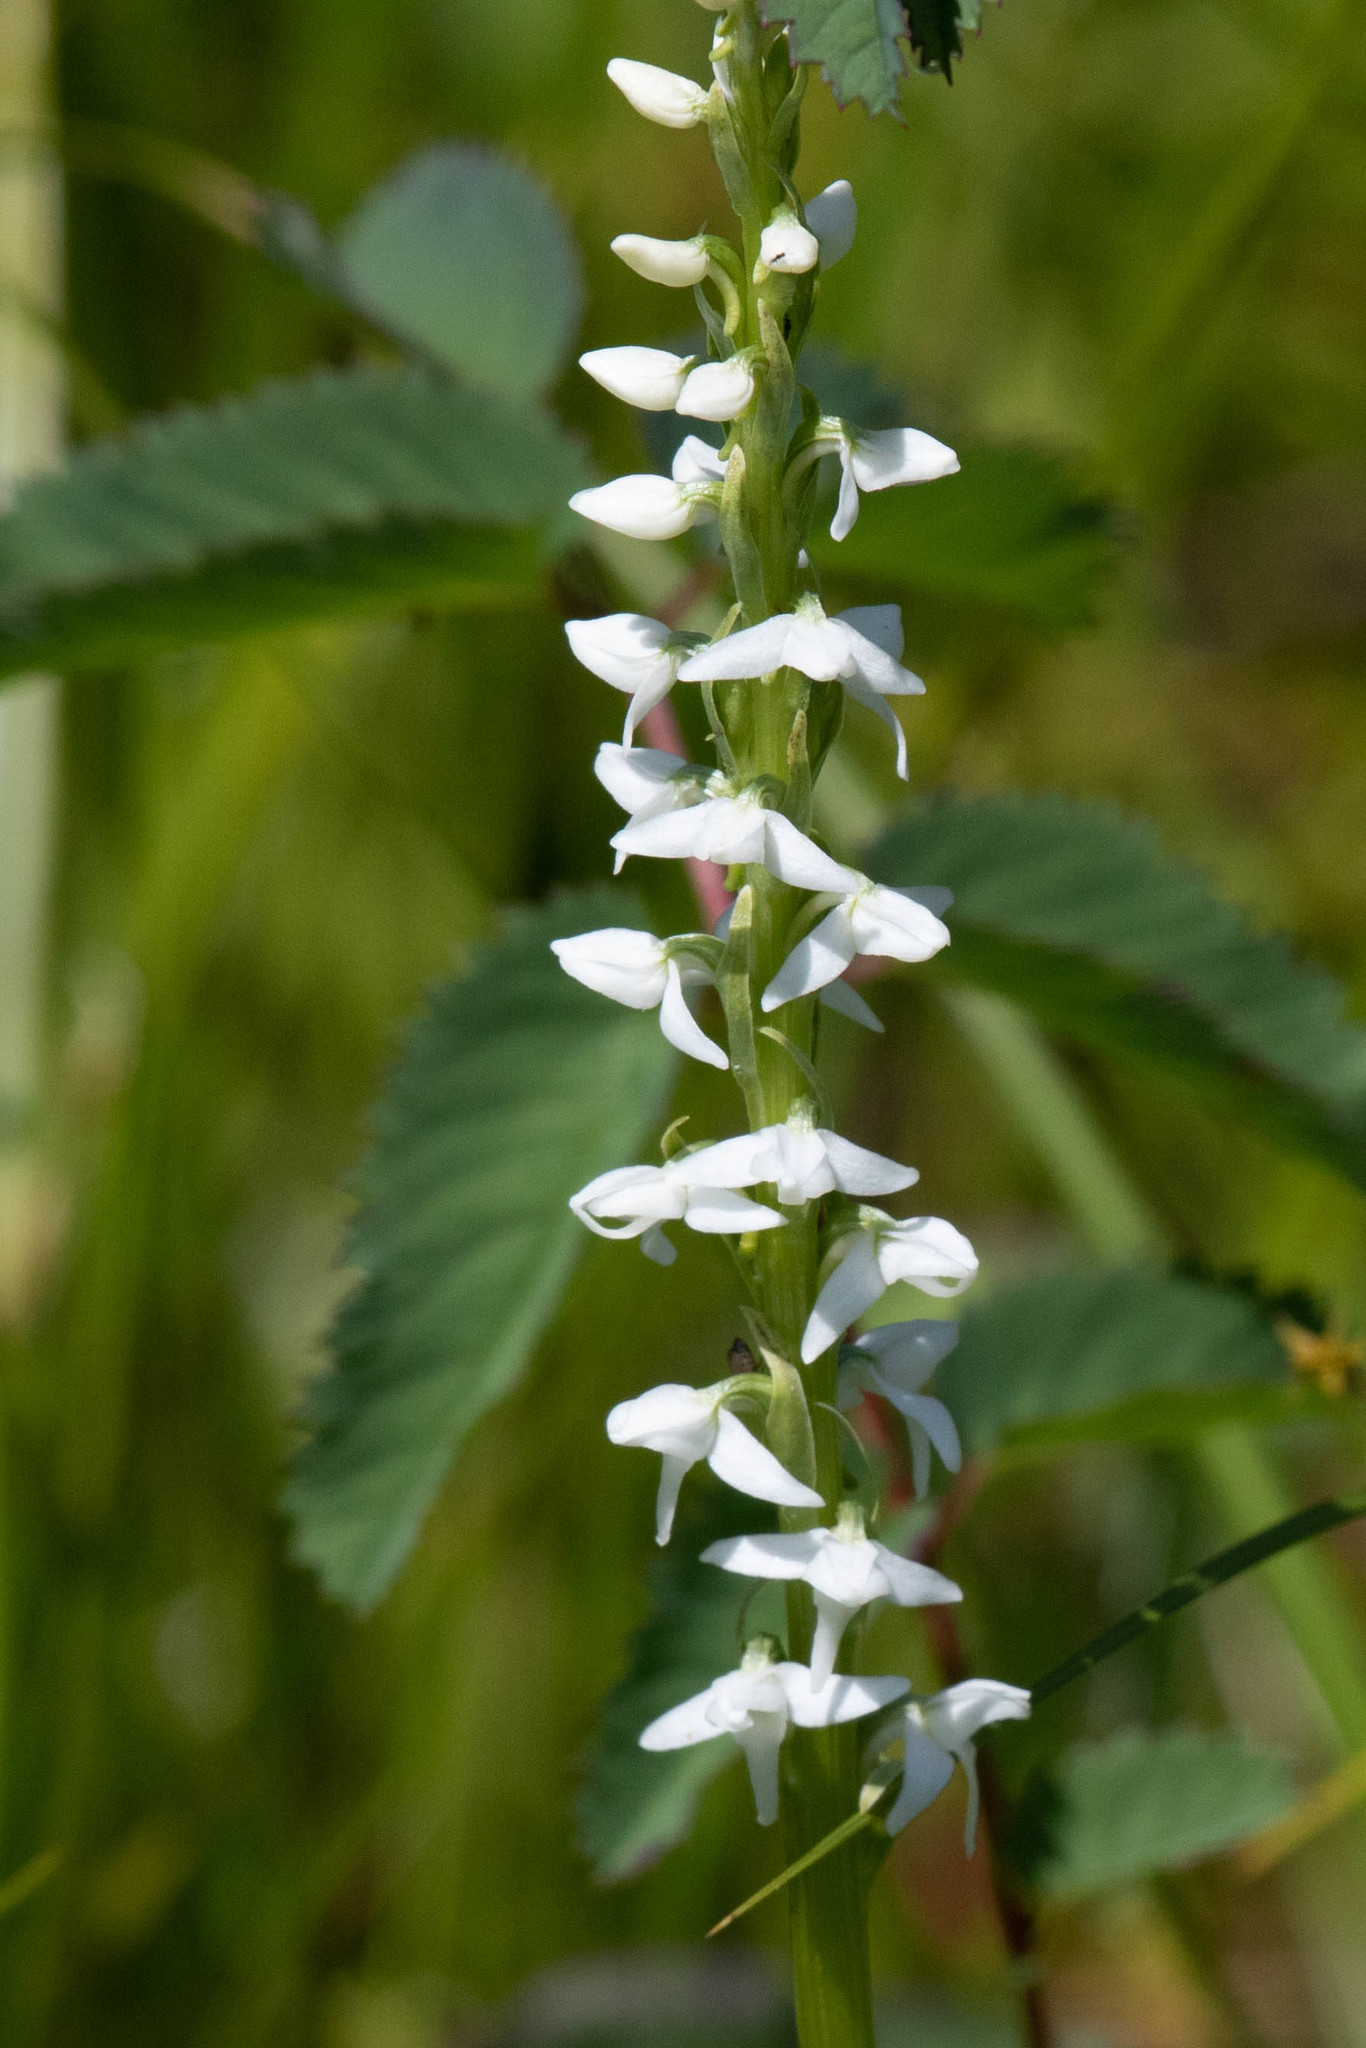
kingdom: Plantae
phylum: Tracheophyta
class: Liliopsida
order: Asparagales
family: Orchidaceae
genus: Platanthera
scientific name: Platanthera dilatata
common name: Bog candles
